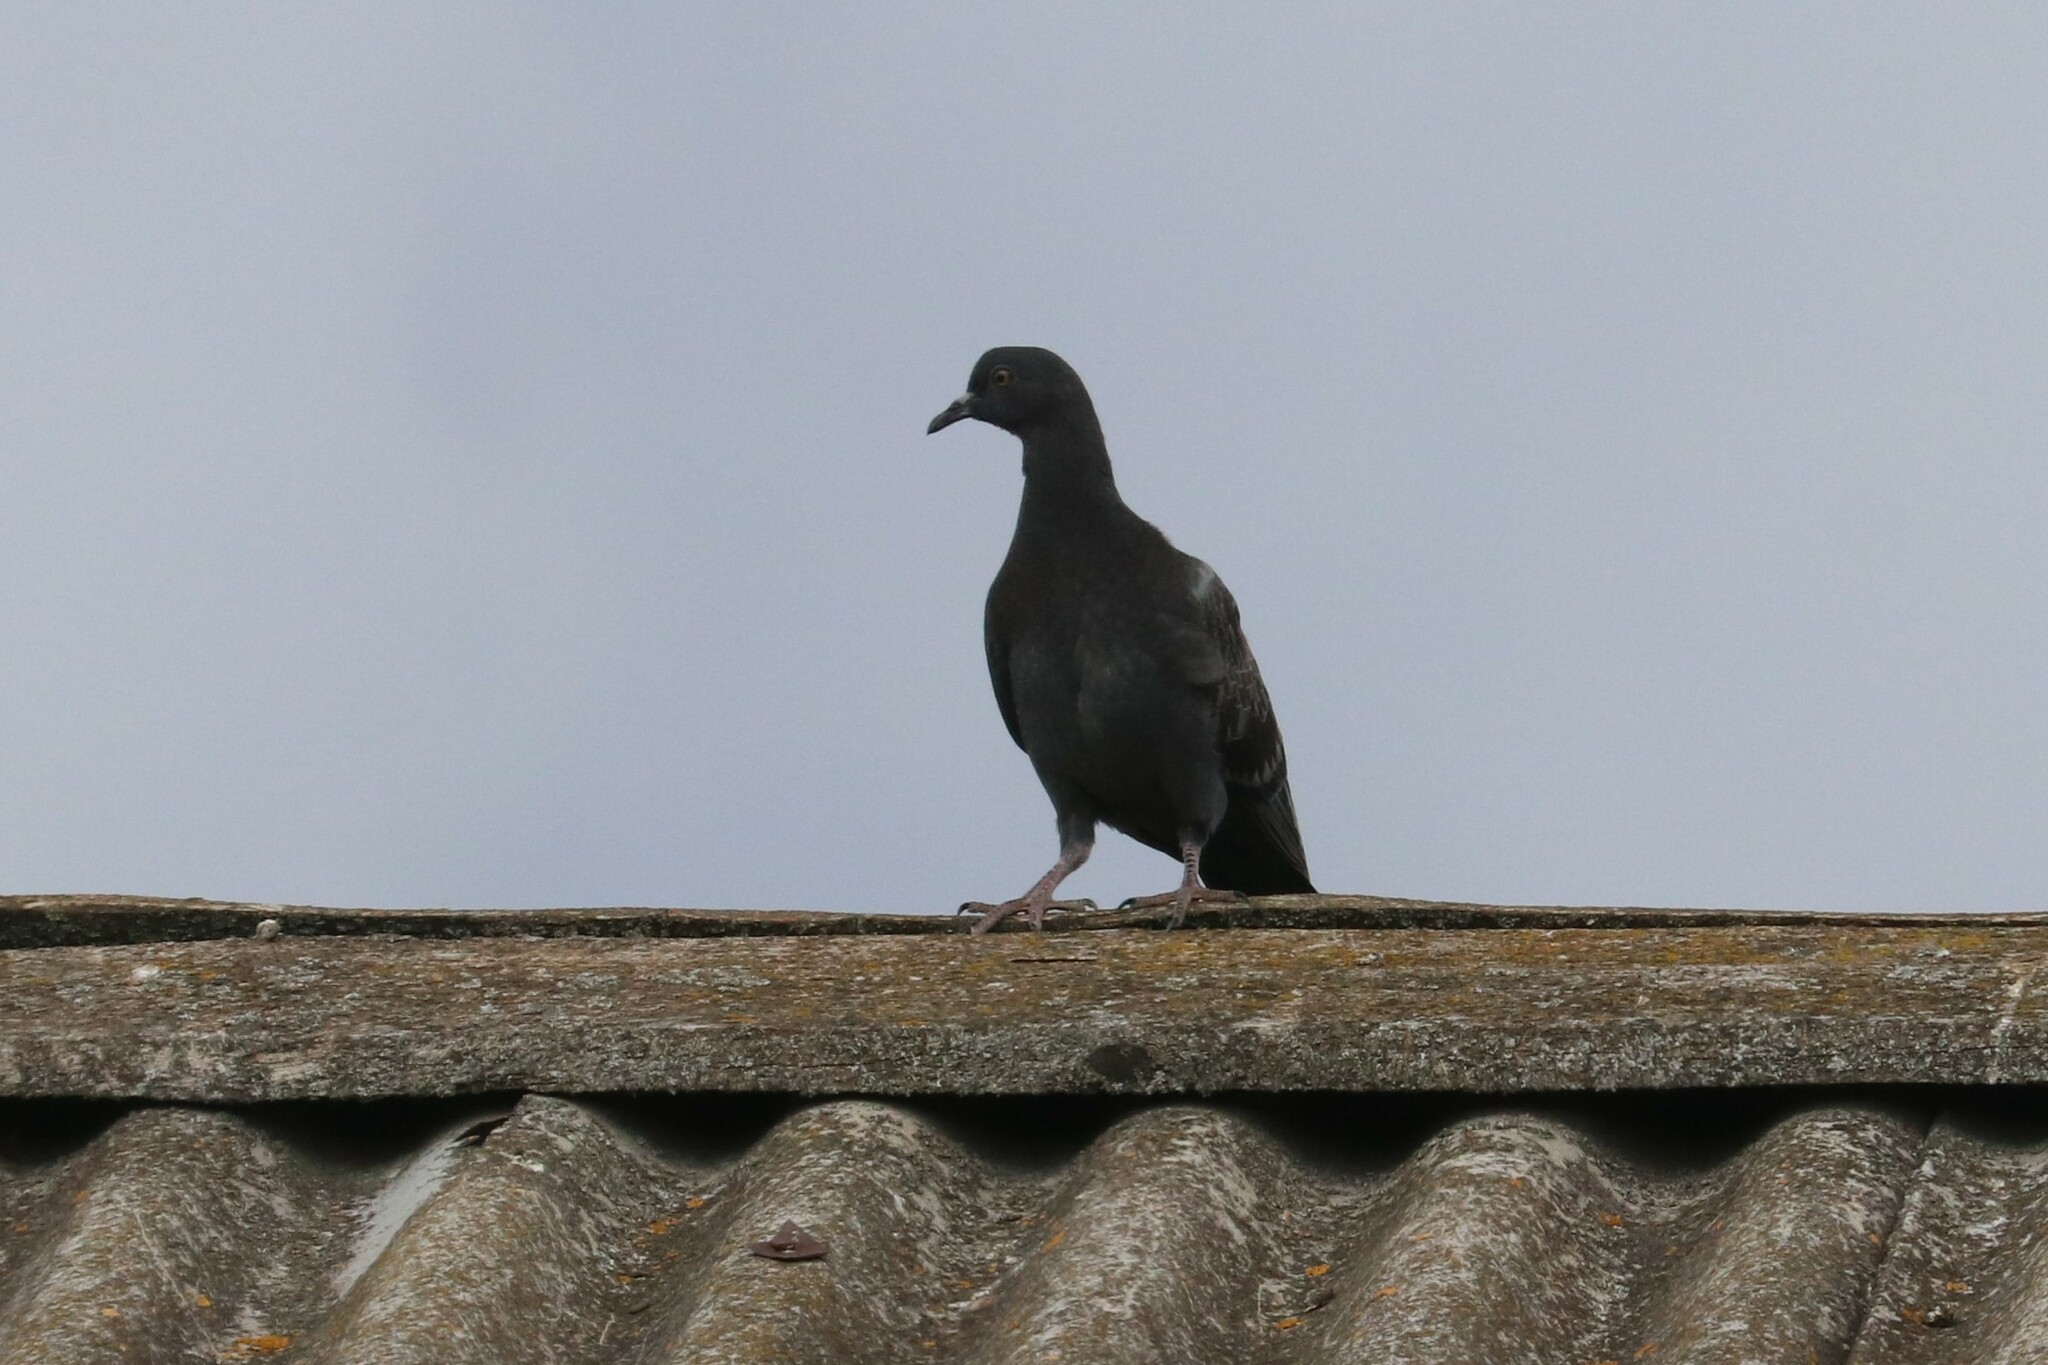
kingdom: Animalia
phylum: Chordata
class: Aves
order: Columbiformes
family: Columbidae
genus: Columba
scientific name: Columba livia
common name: Rock pigeon
